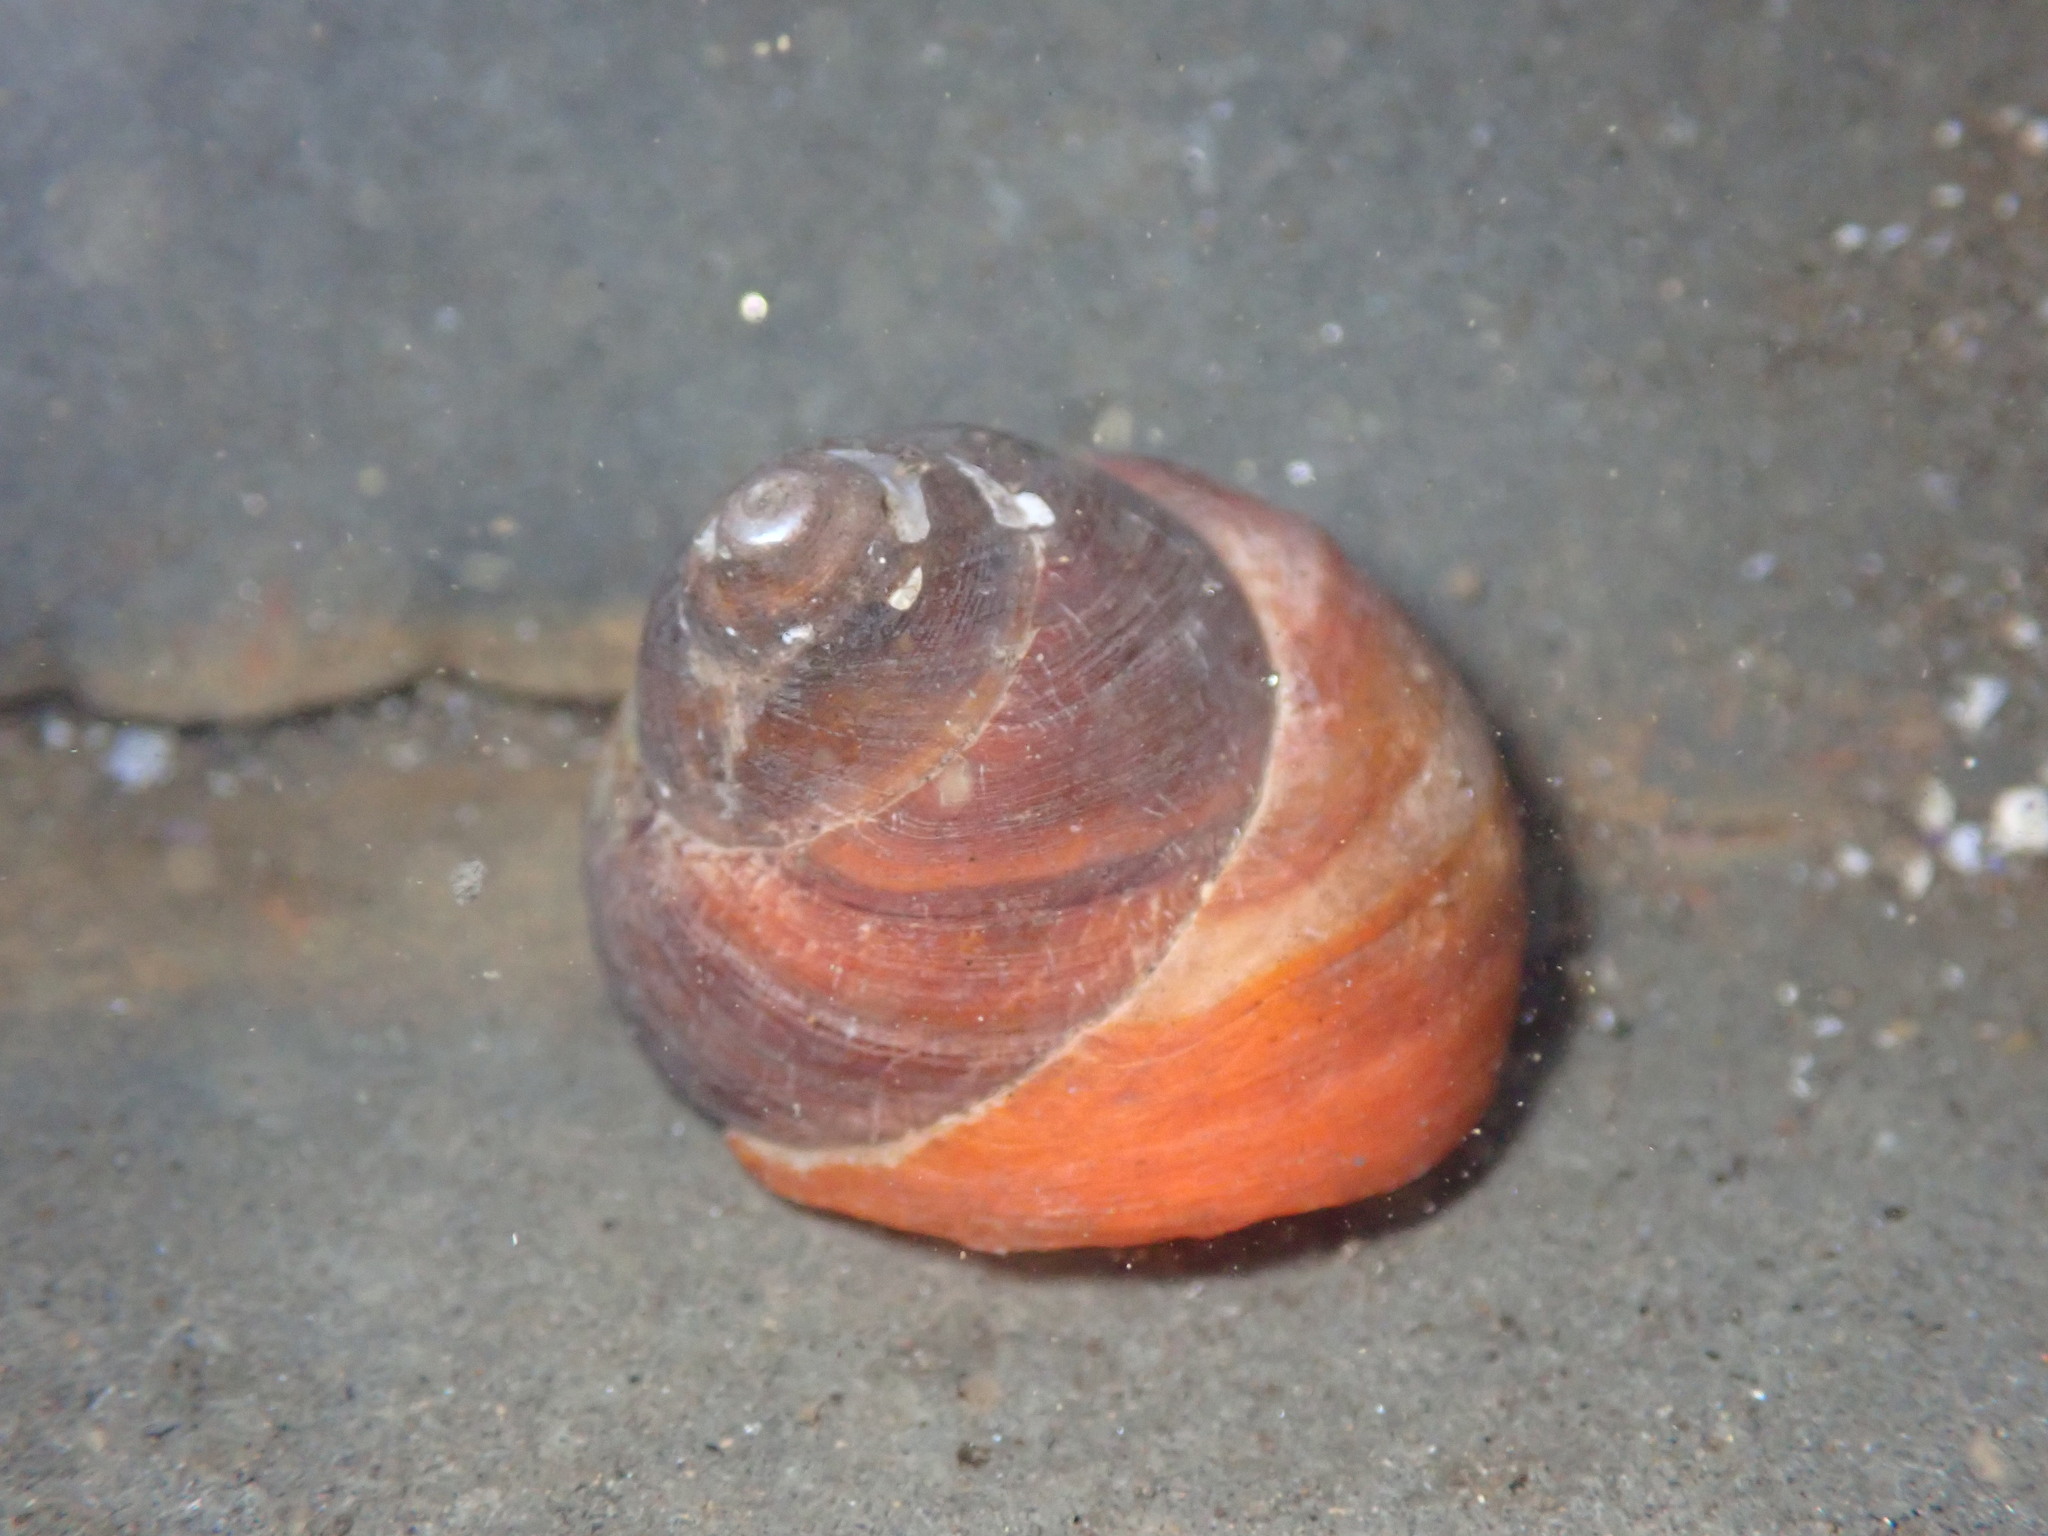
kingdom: Animalia
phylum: Mollusca
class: Gastropoda
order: Trochida
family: Tegulidae
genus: Tegula
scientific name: Tegula brunnea
